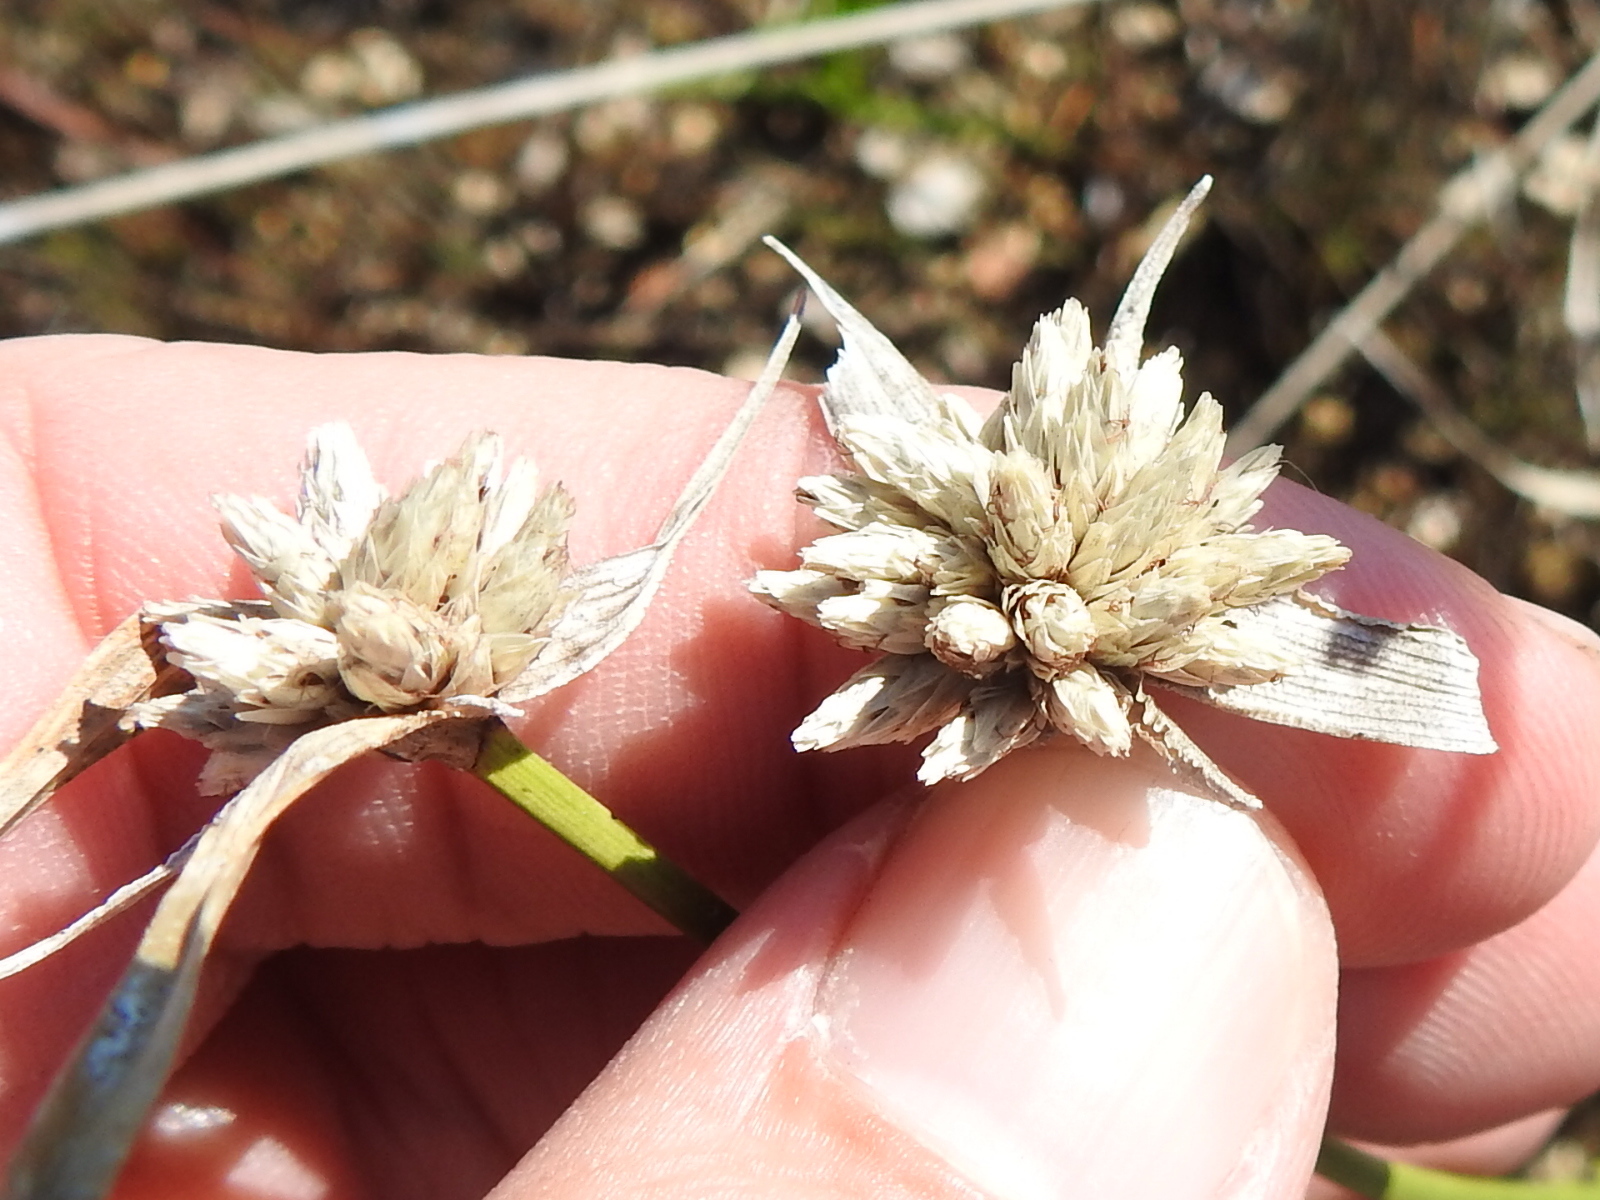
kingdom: Plantae
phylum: Tracheophyta
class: Liliopsida
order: Poales
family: Cyperaceae
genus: Rhynchospora
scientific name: Rhynchospora colorata
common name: Star sedge
